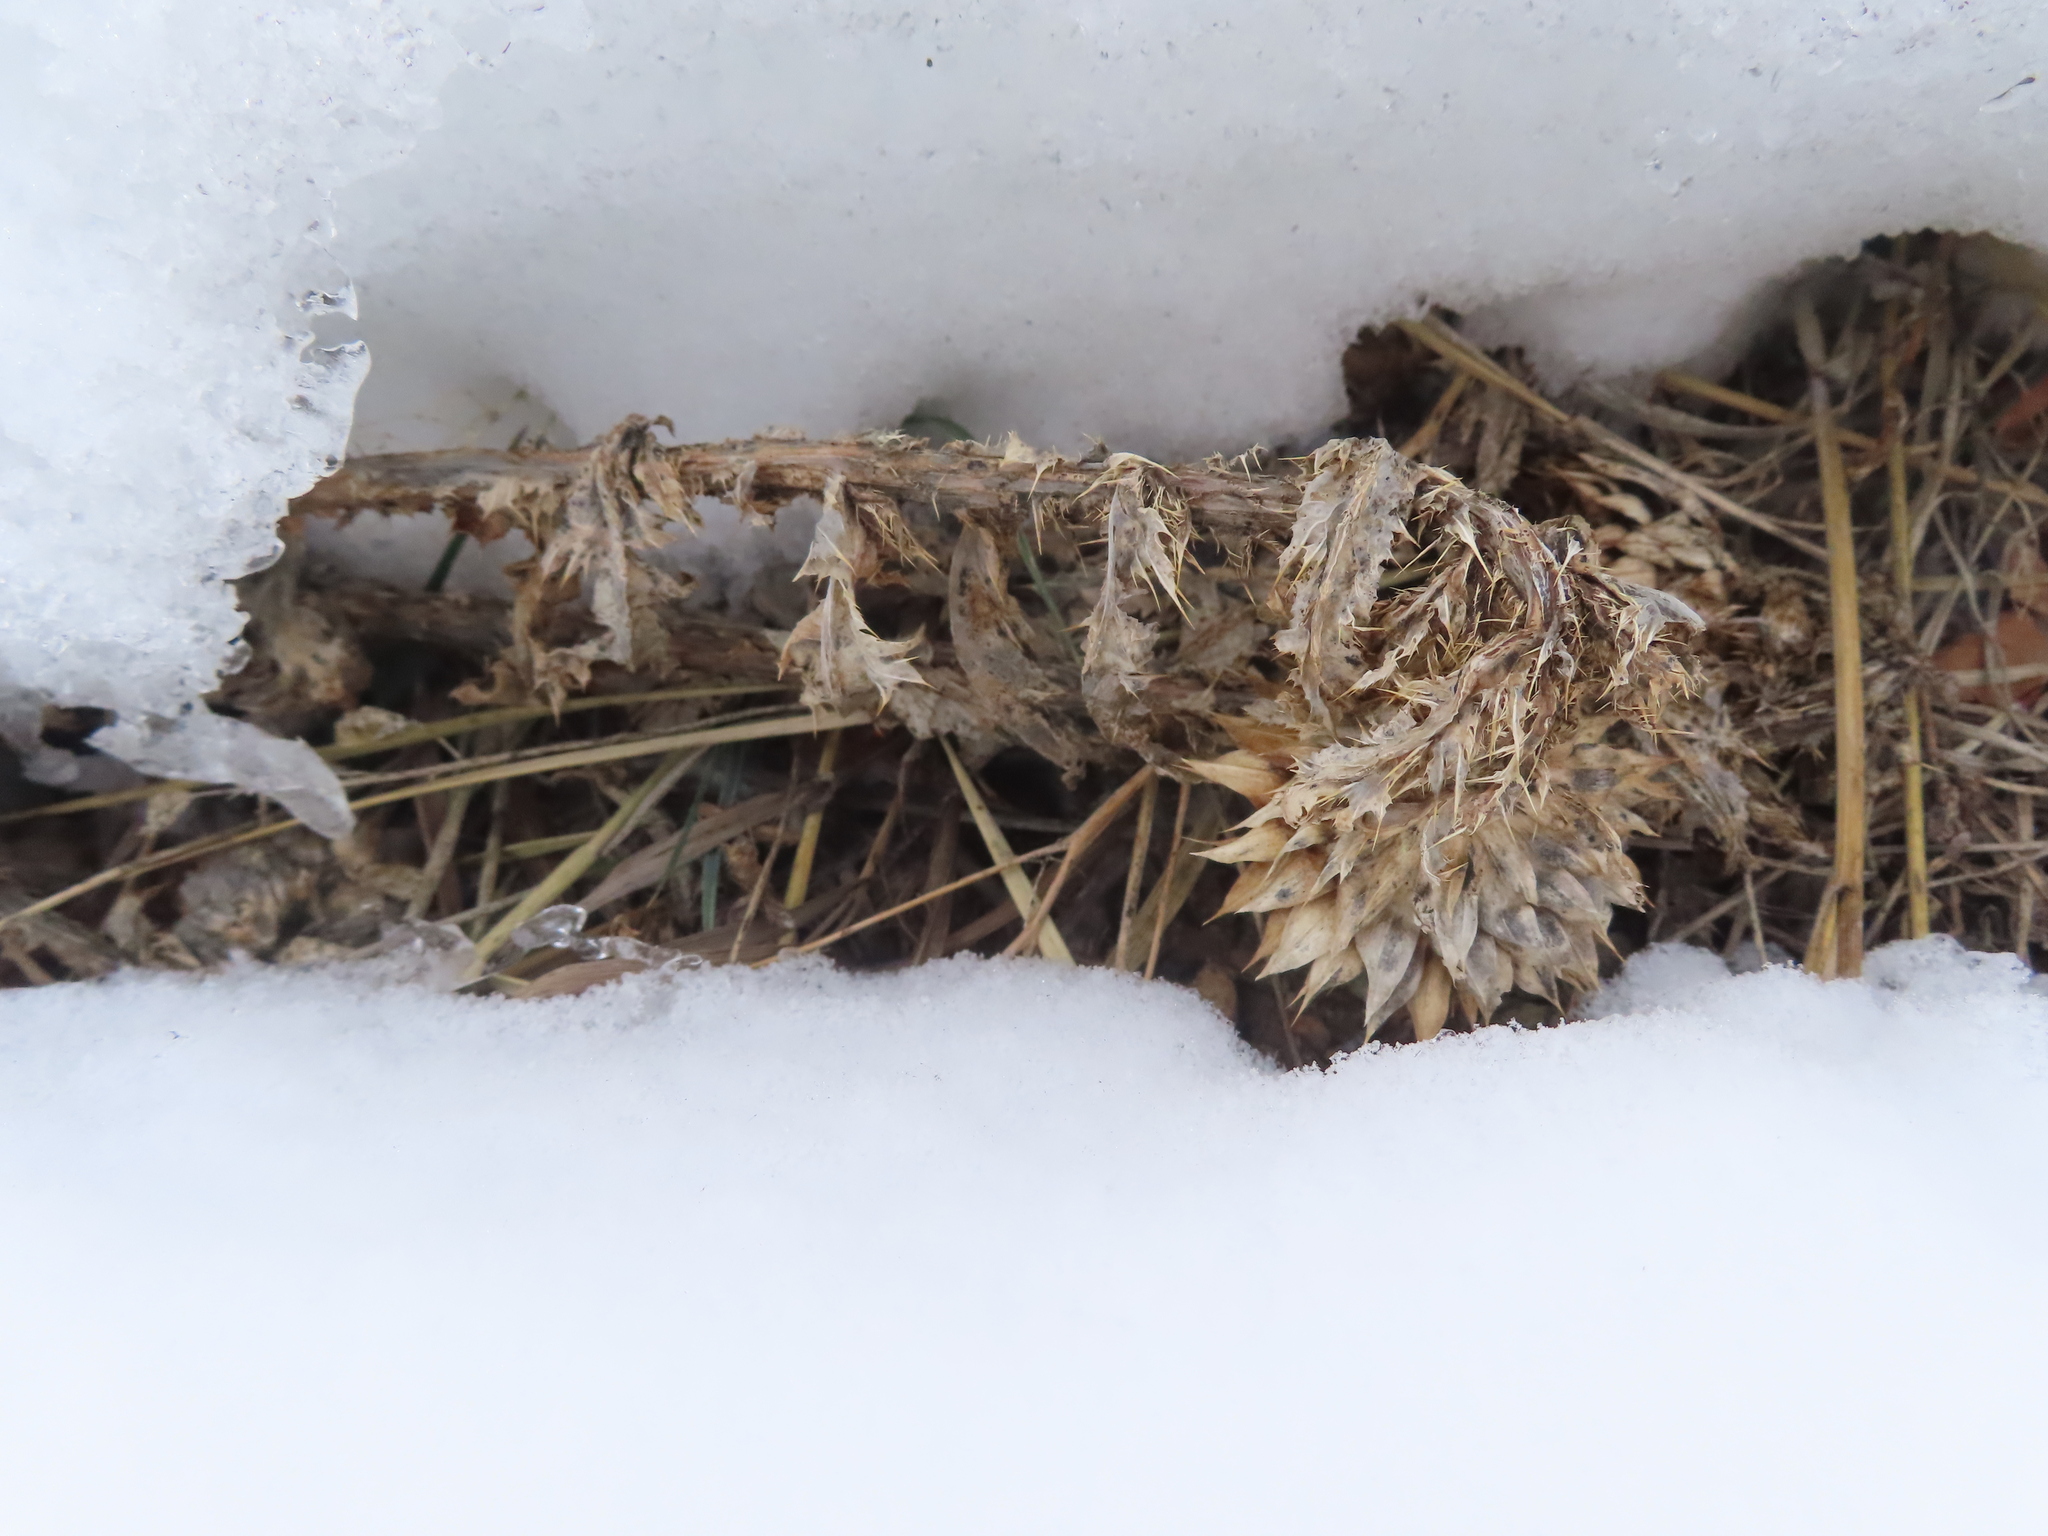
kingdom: Plantae
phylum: Tracheophyta
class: Magnoliopsida
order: Asterales
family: Asteraceae
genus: Carduus
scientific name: Carduus nutans
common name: Musk thistle
